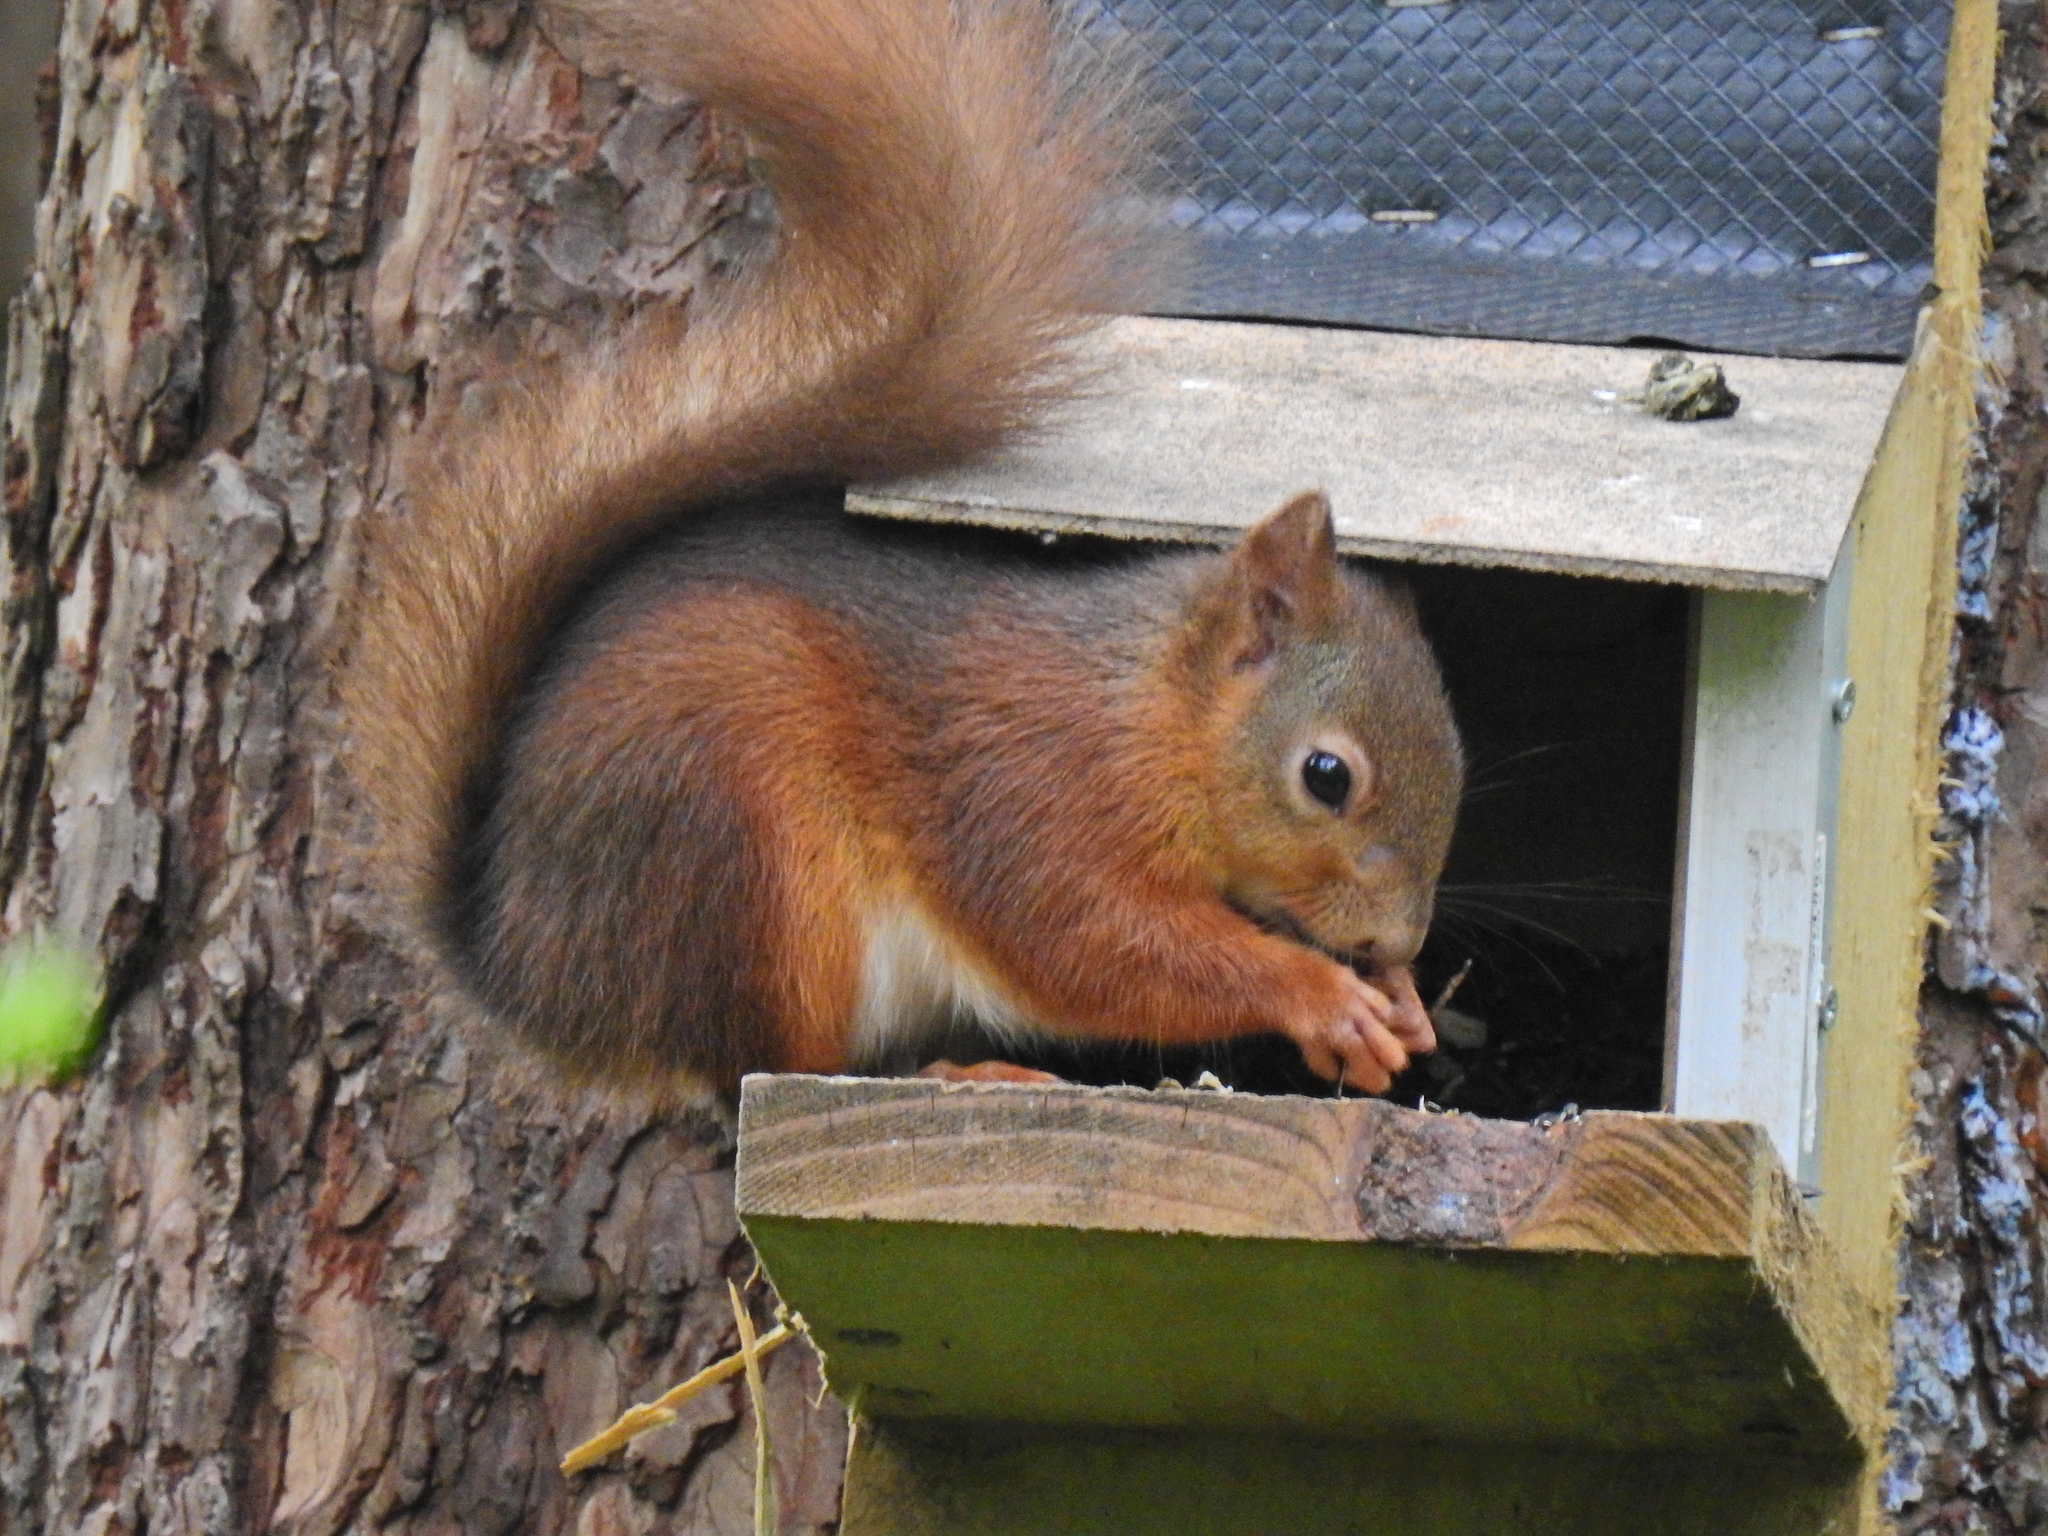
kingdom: Animalia
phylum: Chordata
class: Mammalia
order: Rodentia
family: Sciuridae
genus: Sciurus
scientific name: Sciurus vulgaris
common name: Eurasian red squirrel
